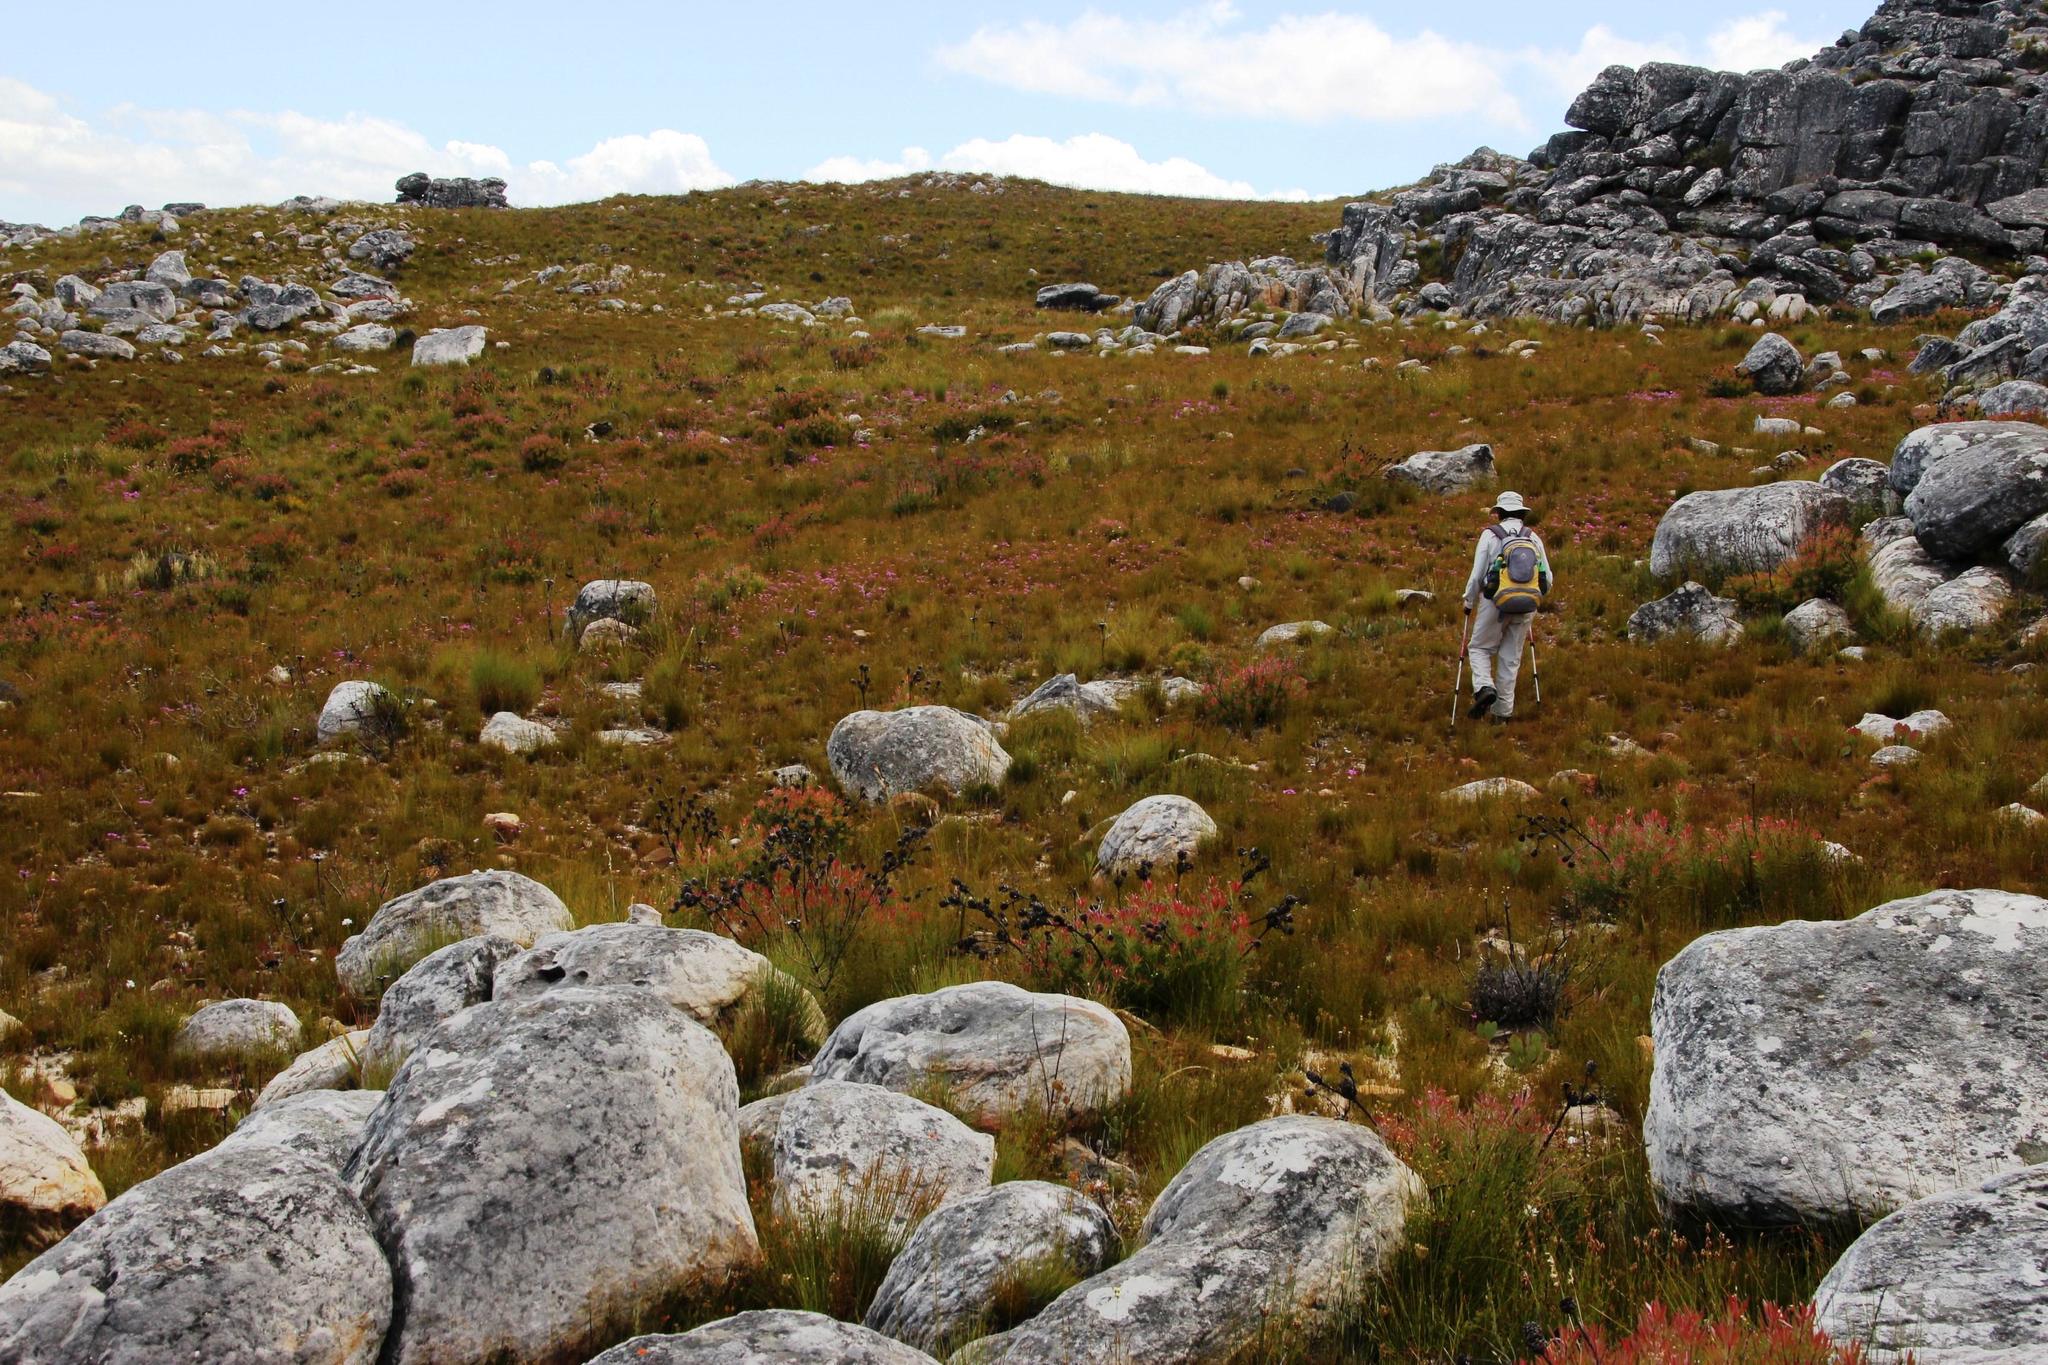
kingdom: Plantae
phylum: Tracheophyta
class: Magnoliopsida
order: Proteales
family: Proteaceae
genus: Leucadendron
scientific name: Leucadendron spissifolium
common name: Spear-leaf conebush
